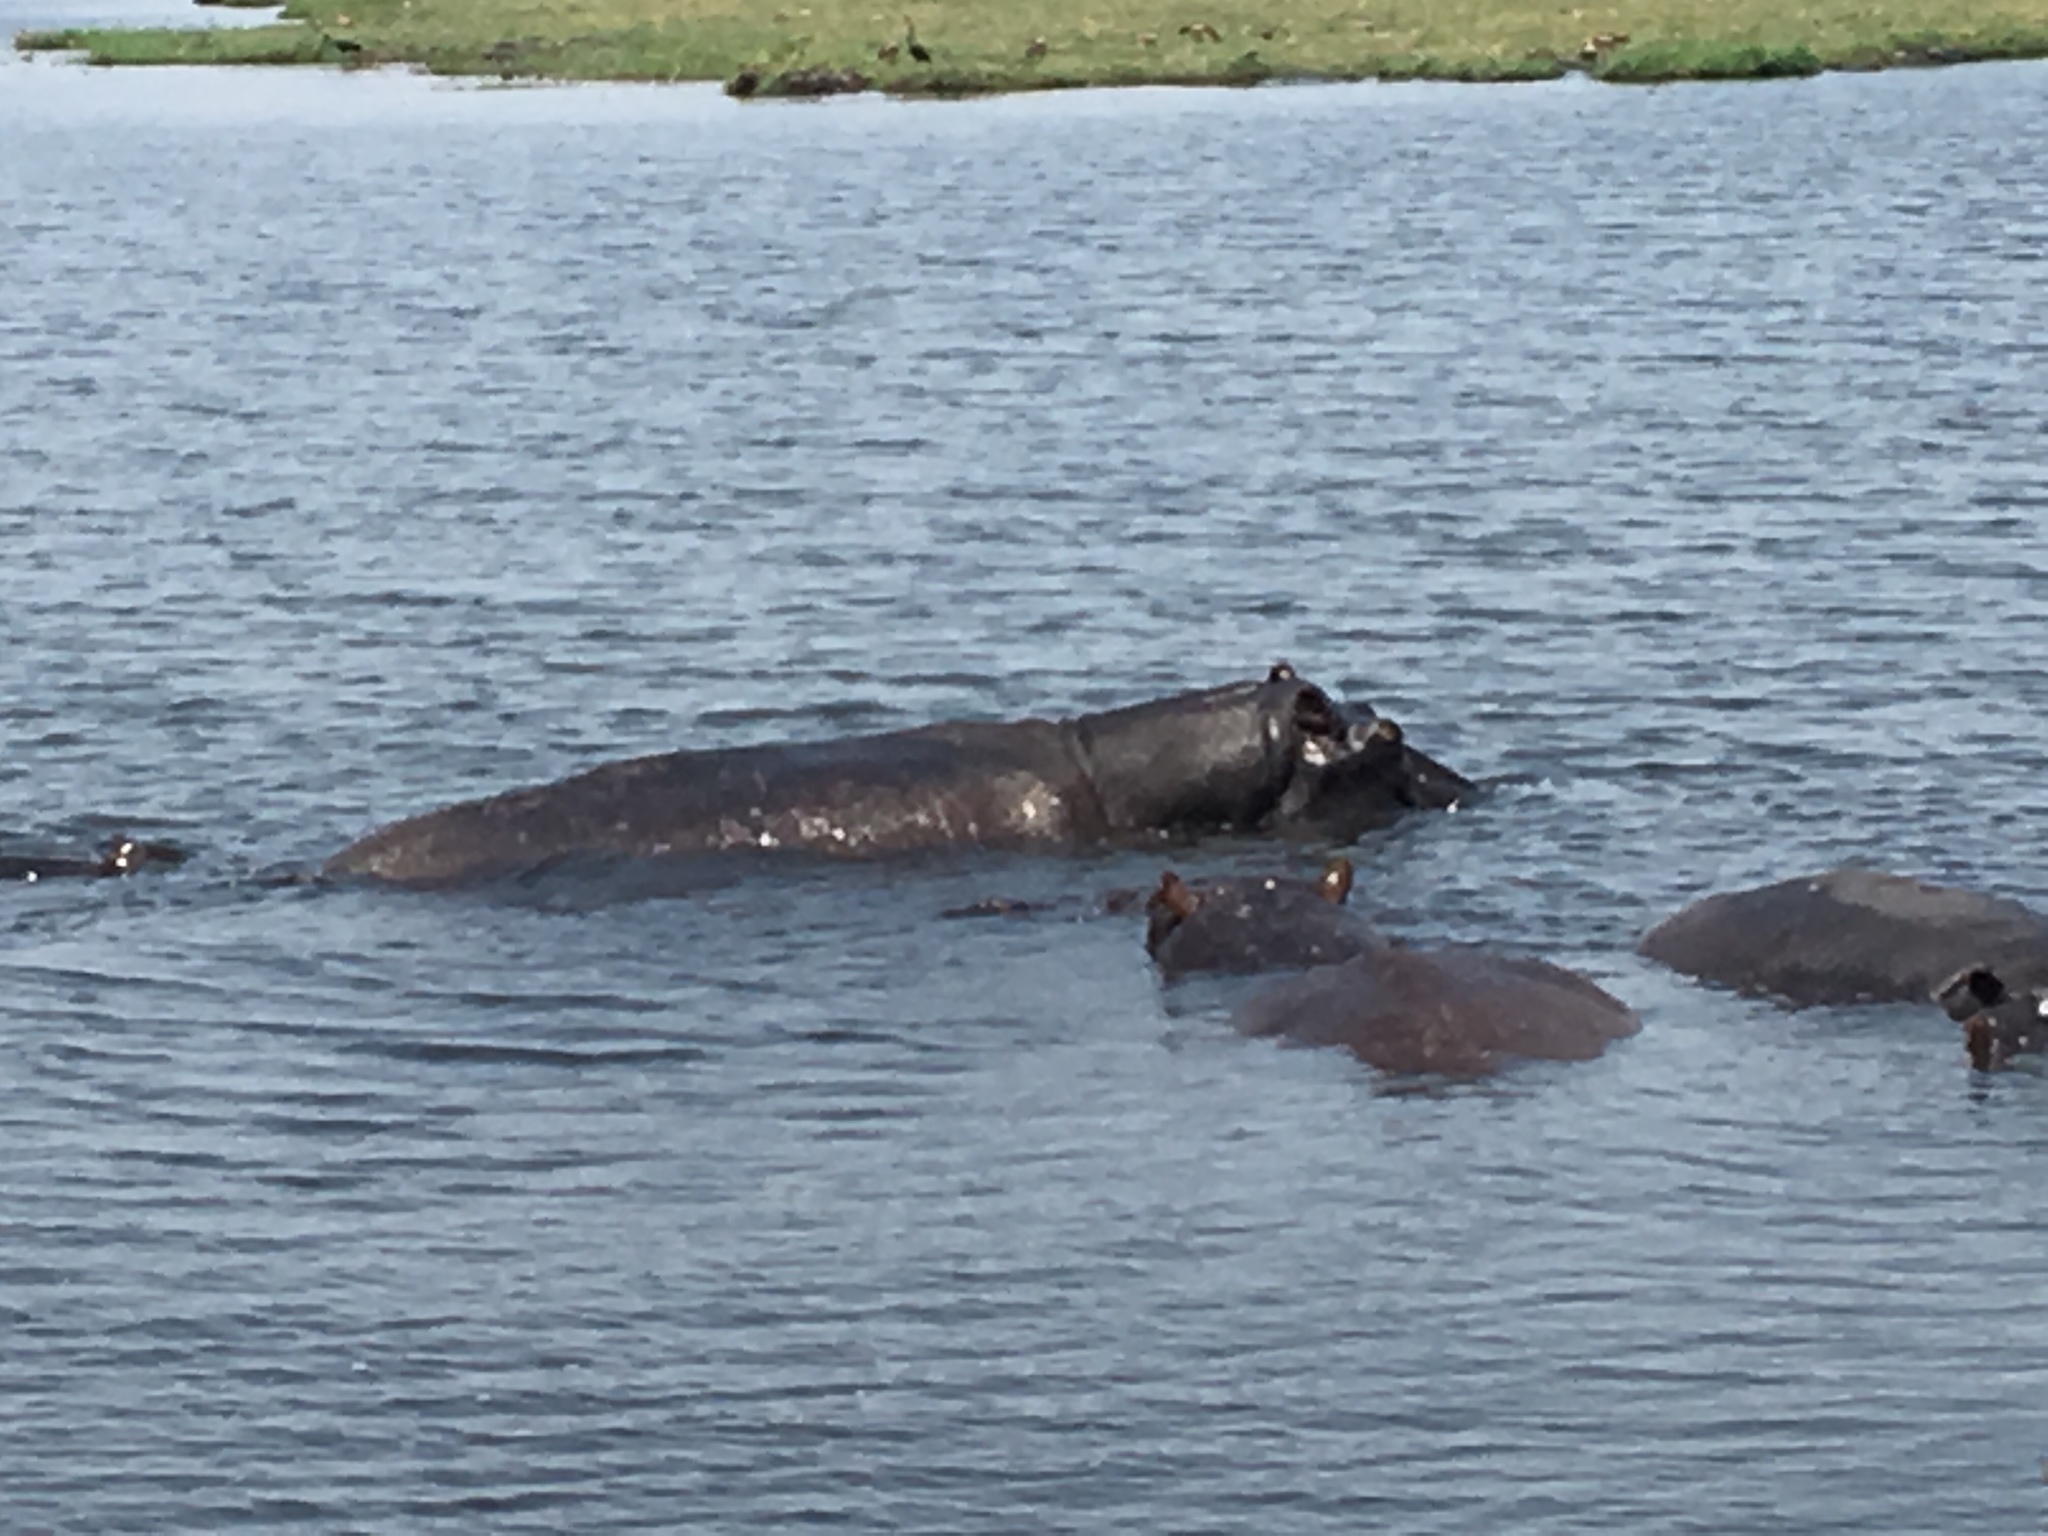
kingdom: Animalia
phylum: Chordata
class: Mammalia
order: Artiodactyla
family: Hippopotamidae
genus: Hippopotamus
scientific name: Hippopotamus amphibius
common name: Common hippopotamus
